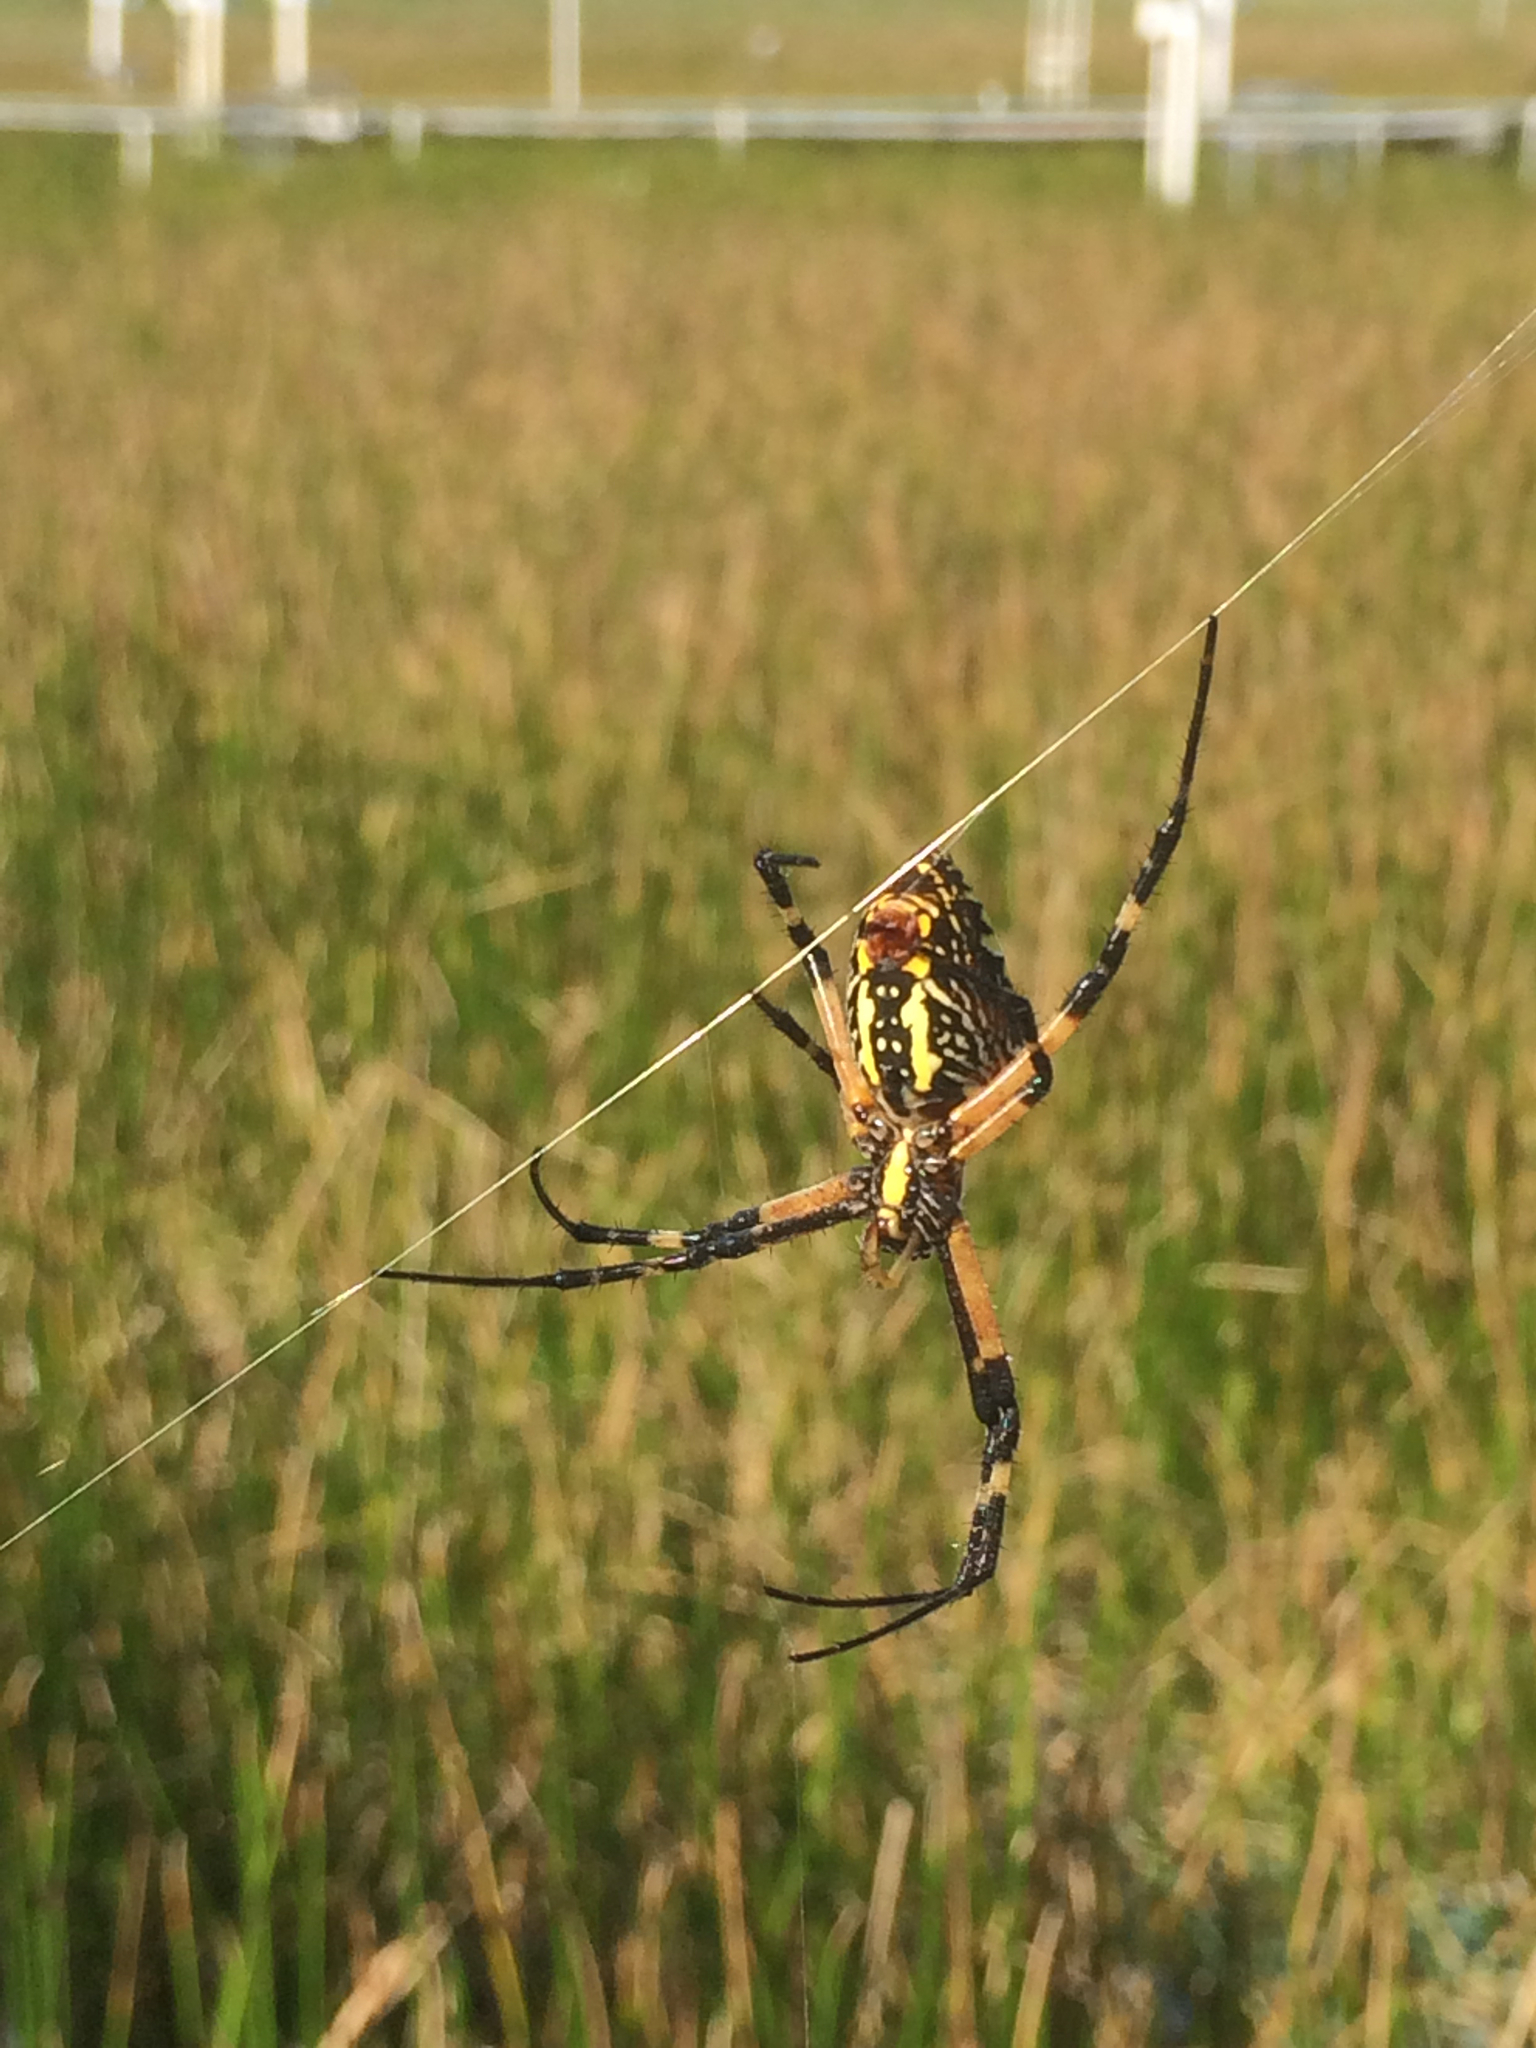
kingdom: Animalia
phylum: Arthropoda
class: Arachnida
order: Araneae
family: Araneidae
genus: Argiope
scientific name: Argiope aurantia
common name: Orb weavers
